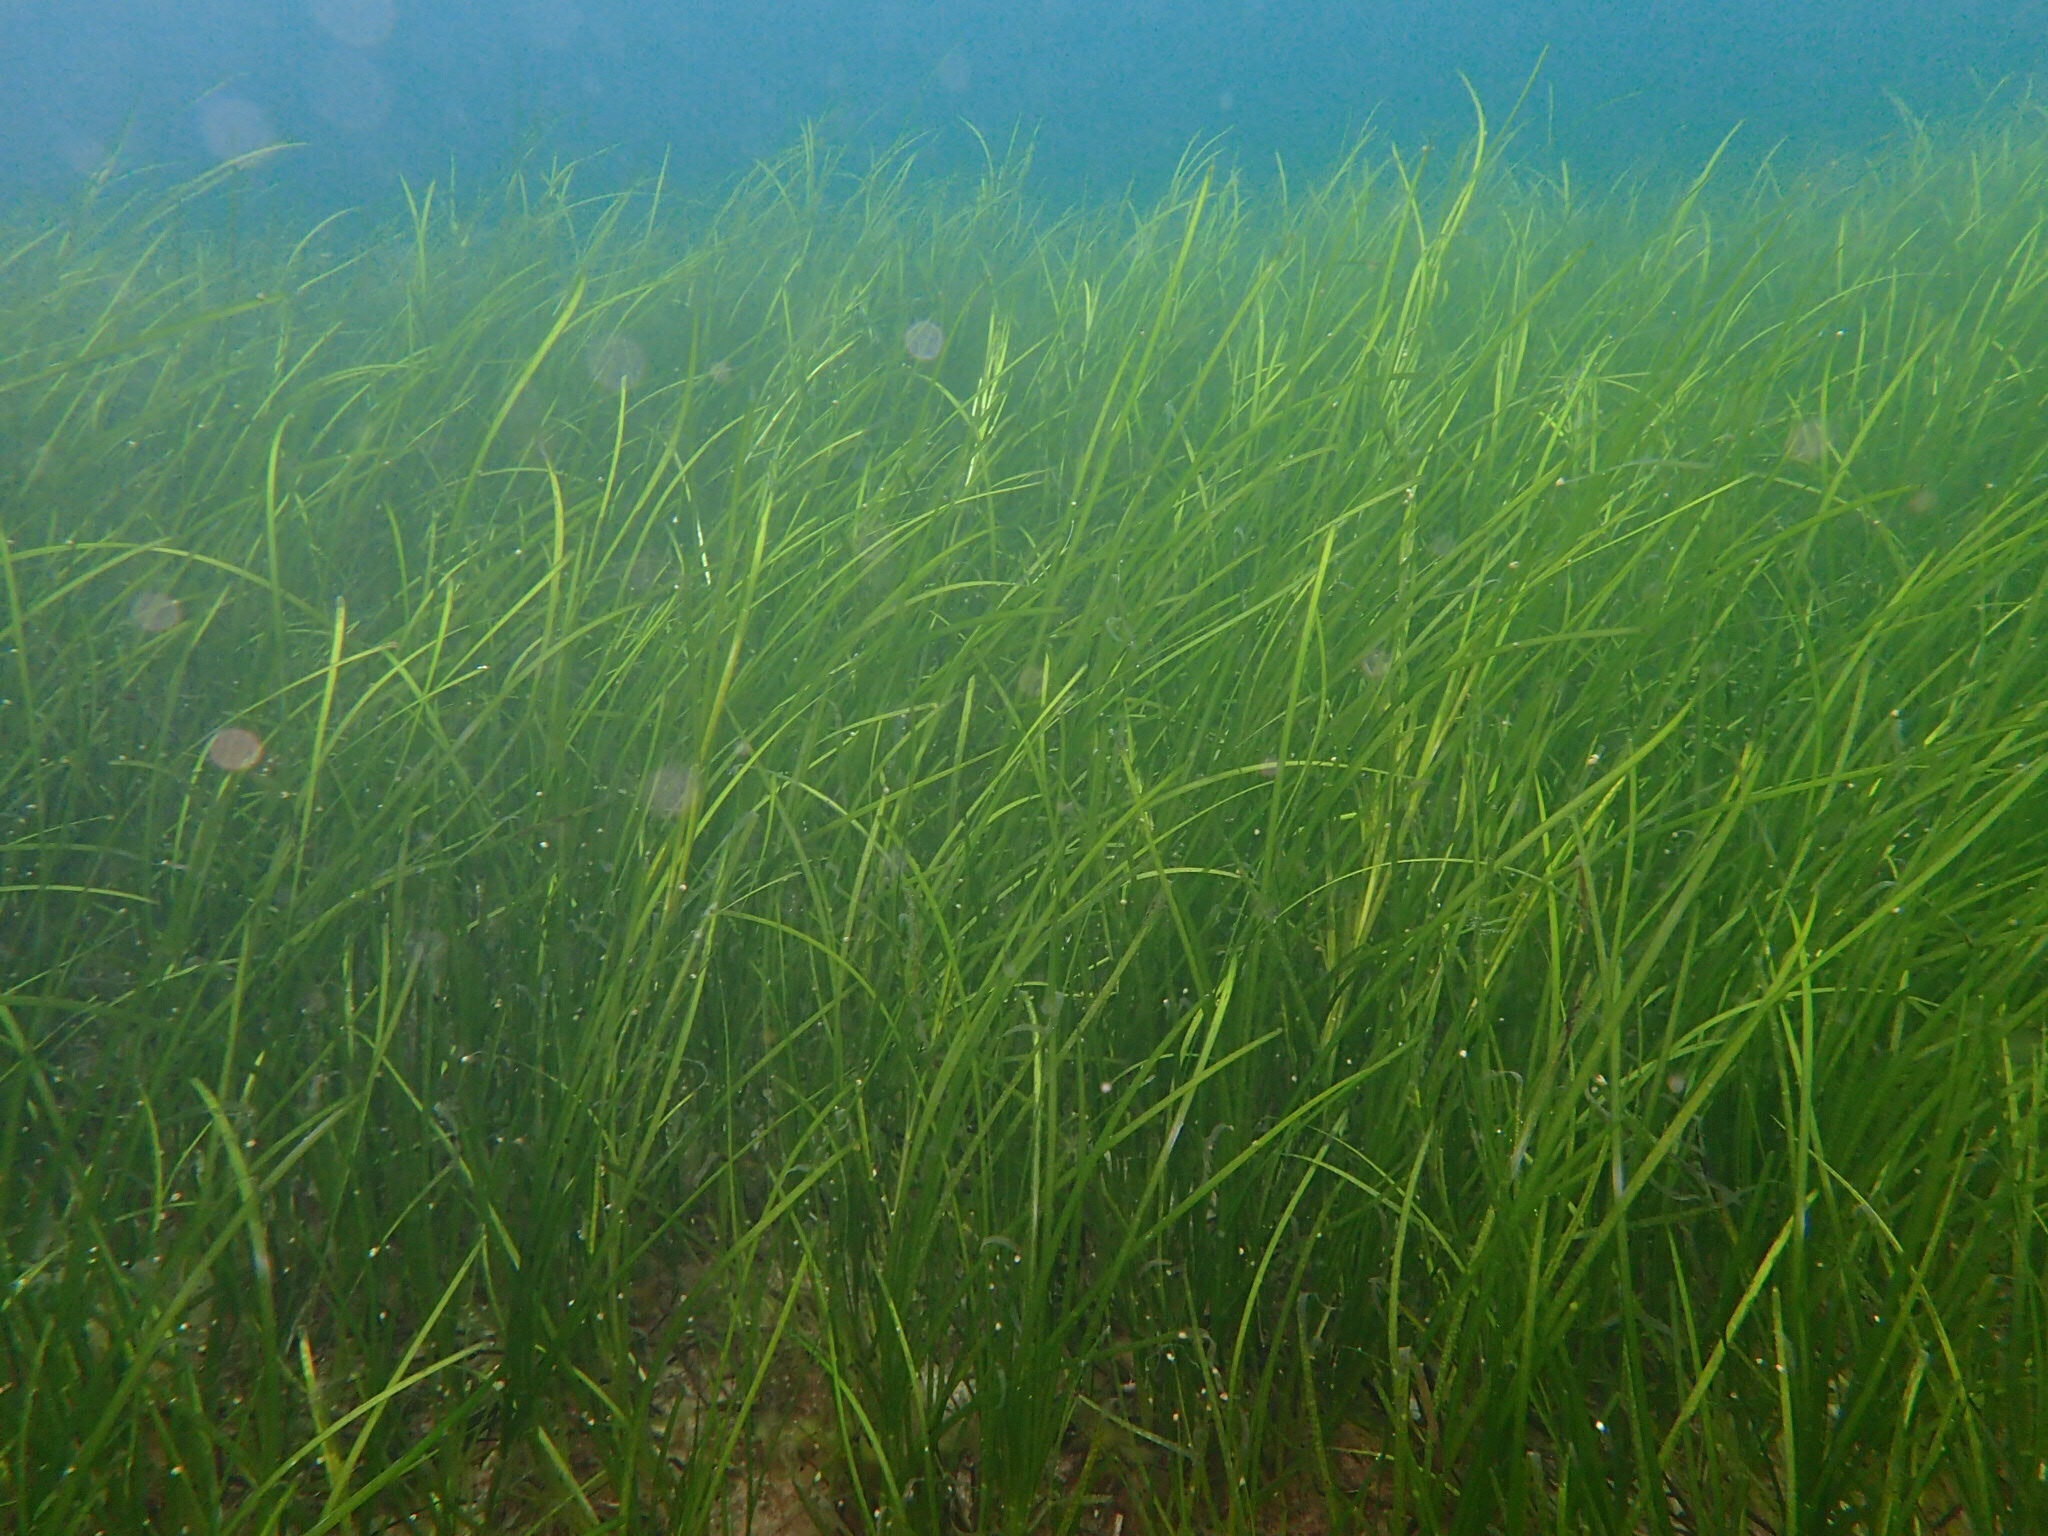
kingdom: Plantae
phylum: Tracheophyta
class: Liliopsida
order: Alismatales
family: Zosteraceae
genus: Zostera
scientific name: Zostera marina
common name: Eelgrass
